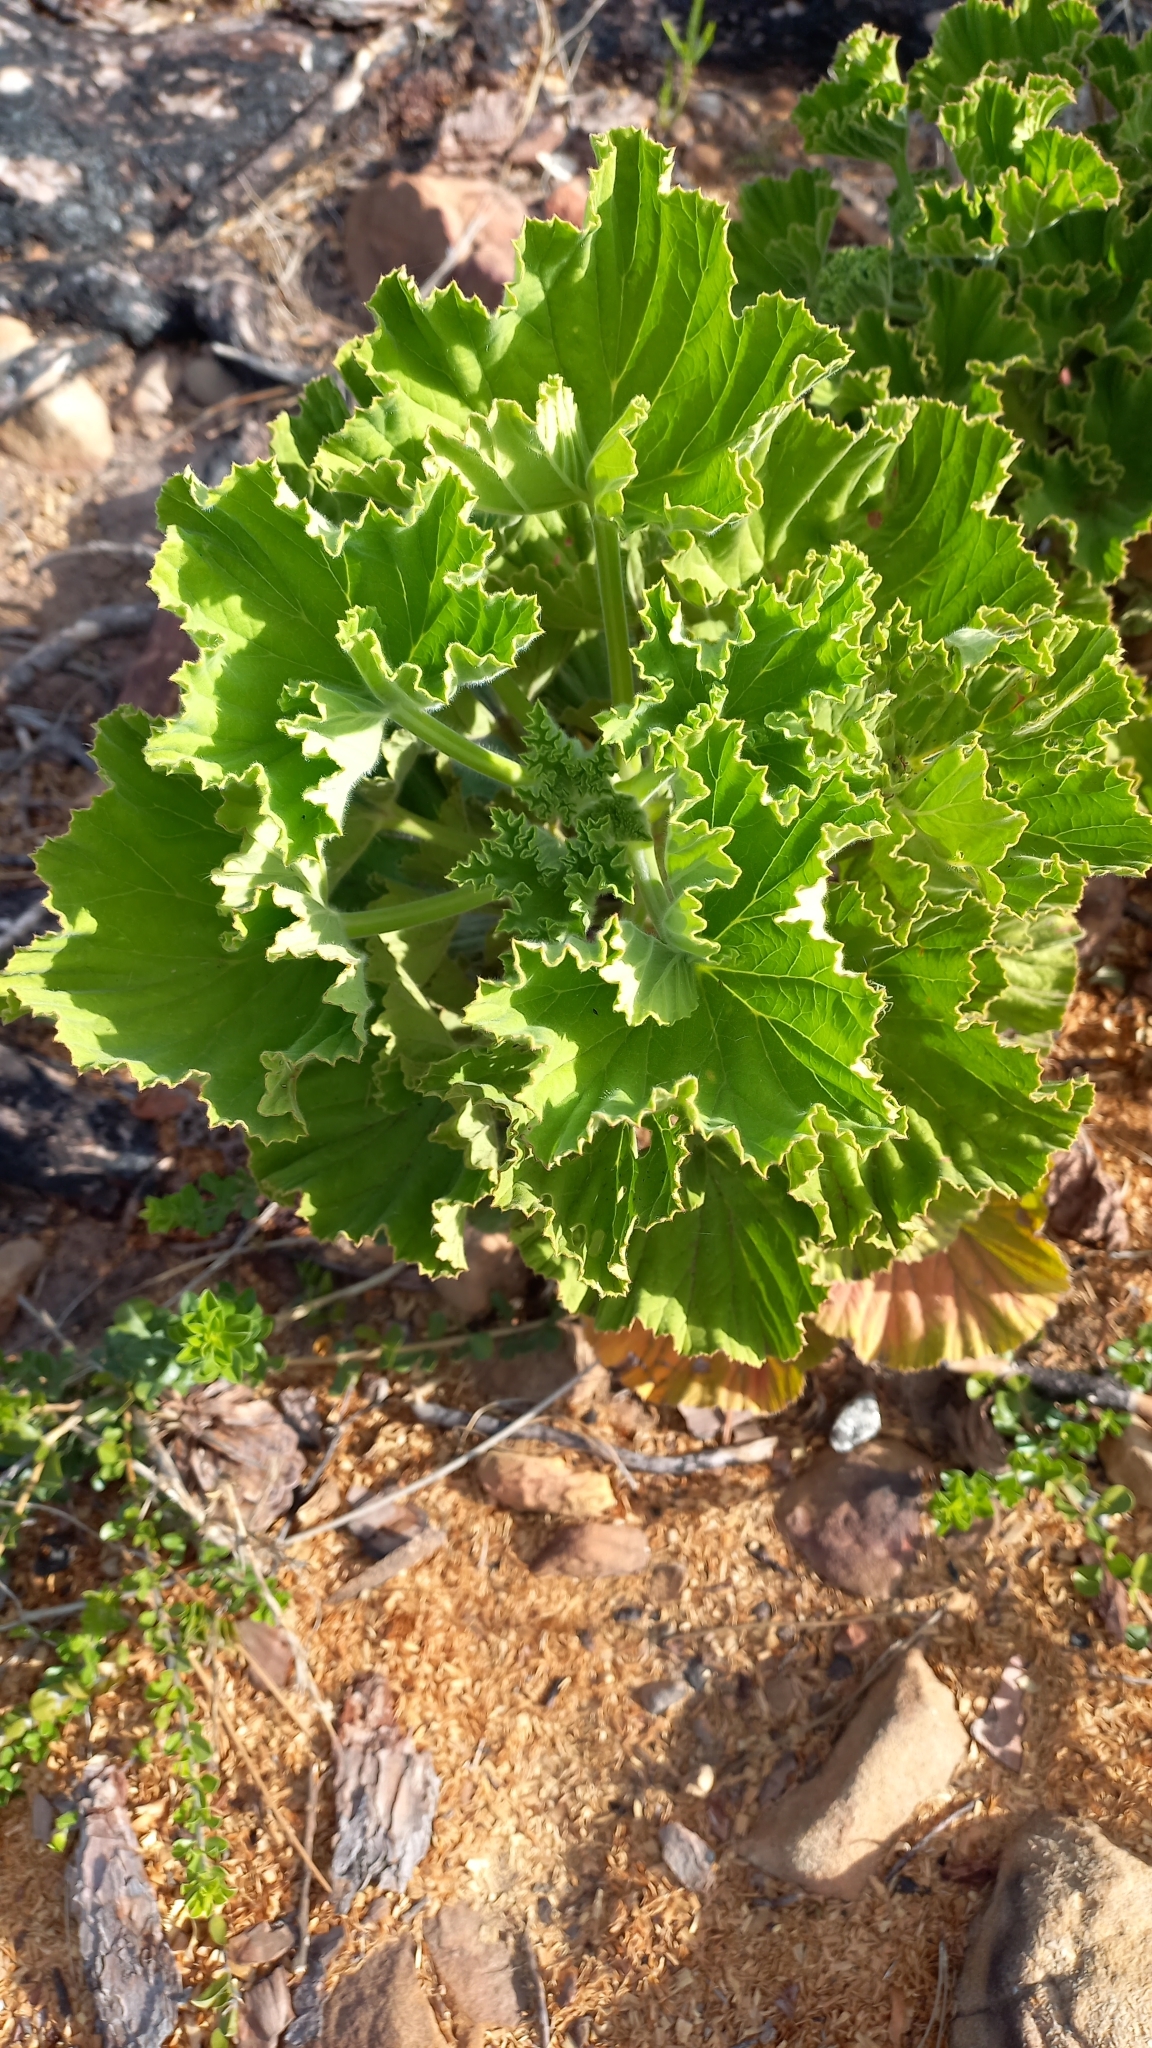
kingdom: Plantae
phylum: Tracheophyta
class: Magnoliopsida
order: Geraniales
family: Geraniaceae
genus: Pelargonium
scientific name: Pelargonium cucullatum
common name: Tree pelargonium
